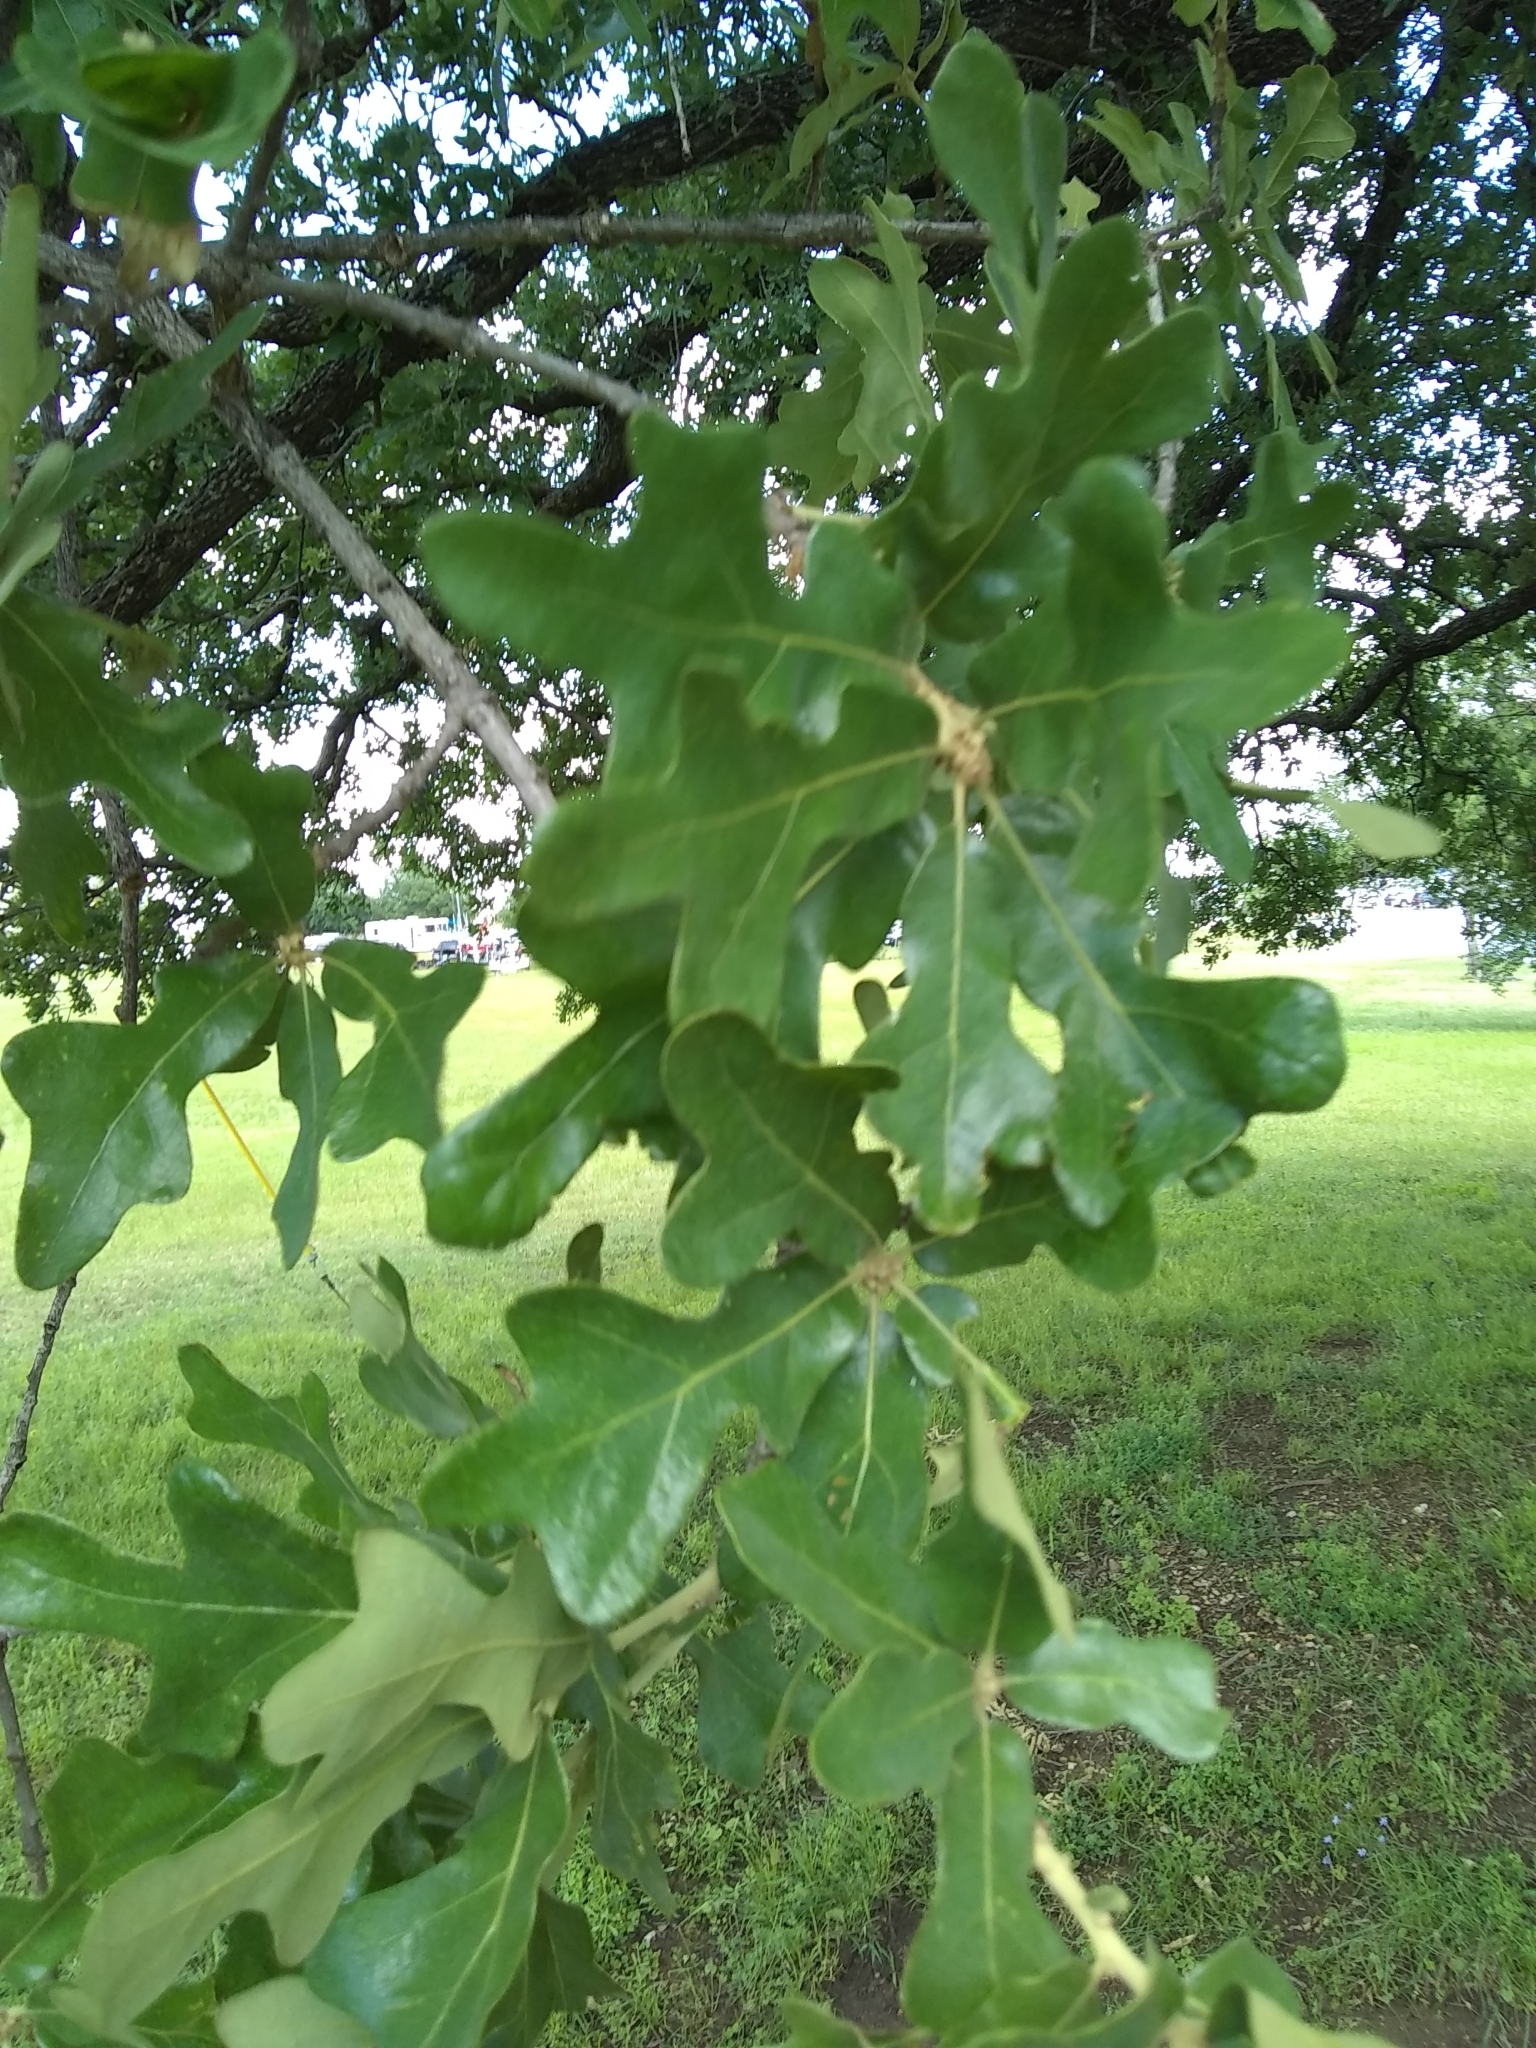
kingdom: Plantae
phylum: Tracheophyta
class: Magnoliopsida
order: Fagales
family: Fagaceae
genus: Quercus
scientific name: Quercus stellata
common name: Post oak
